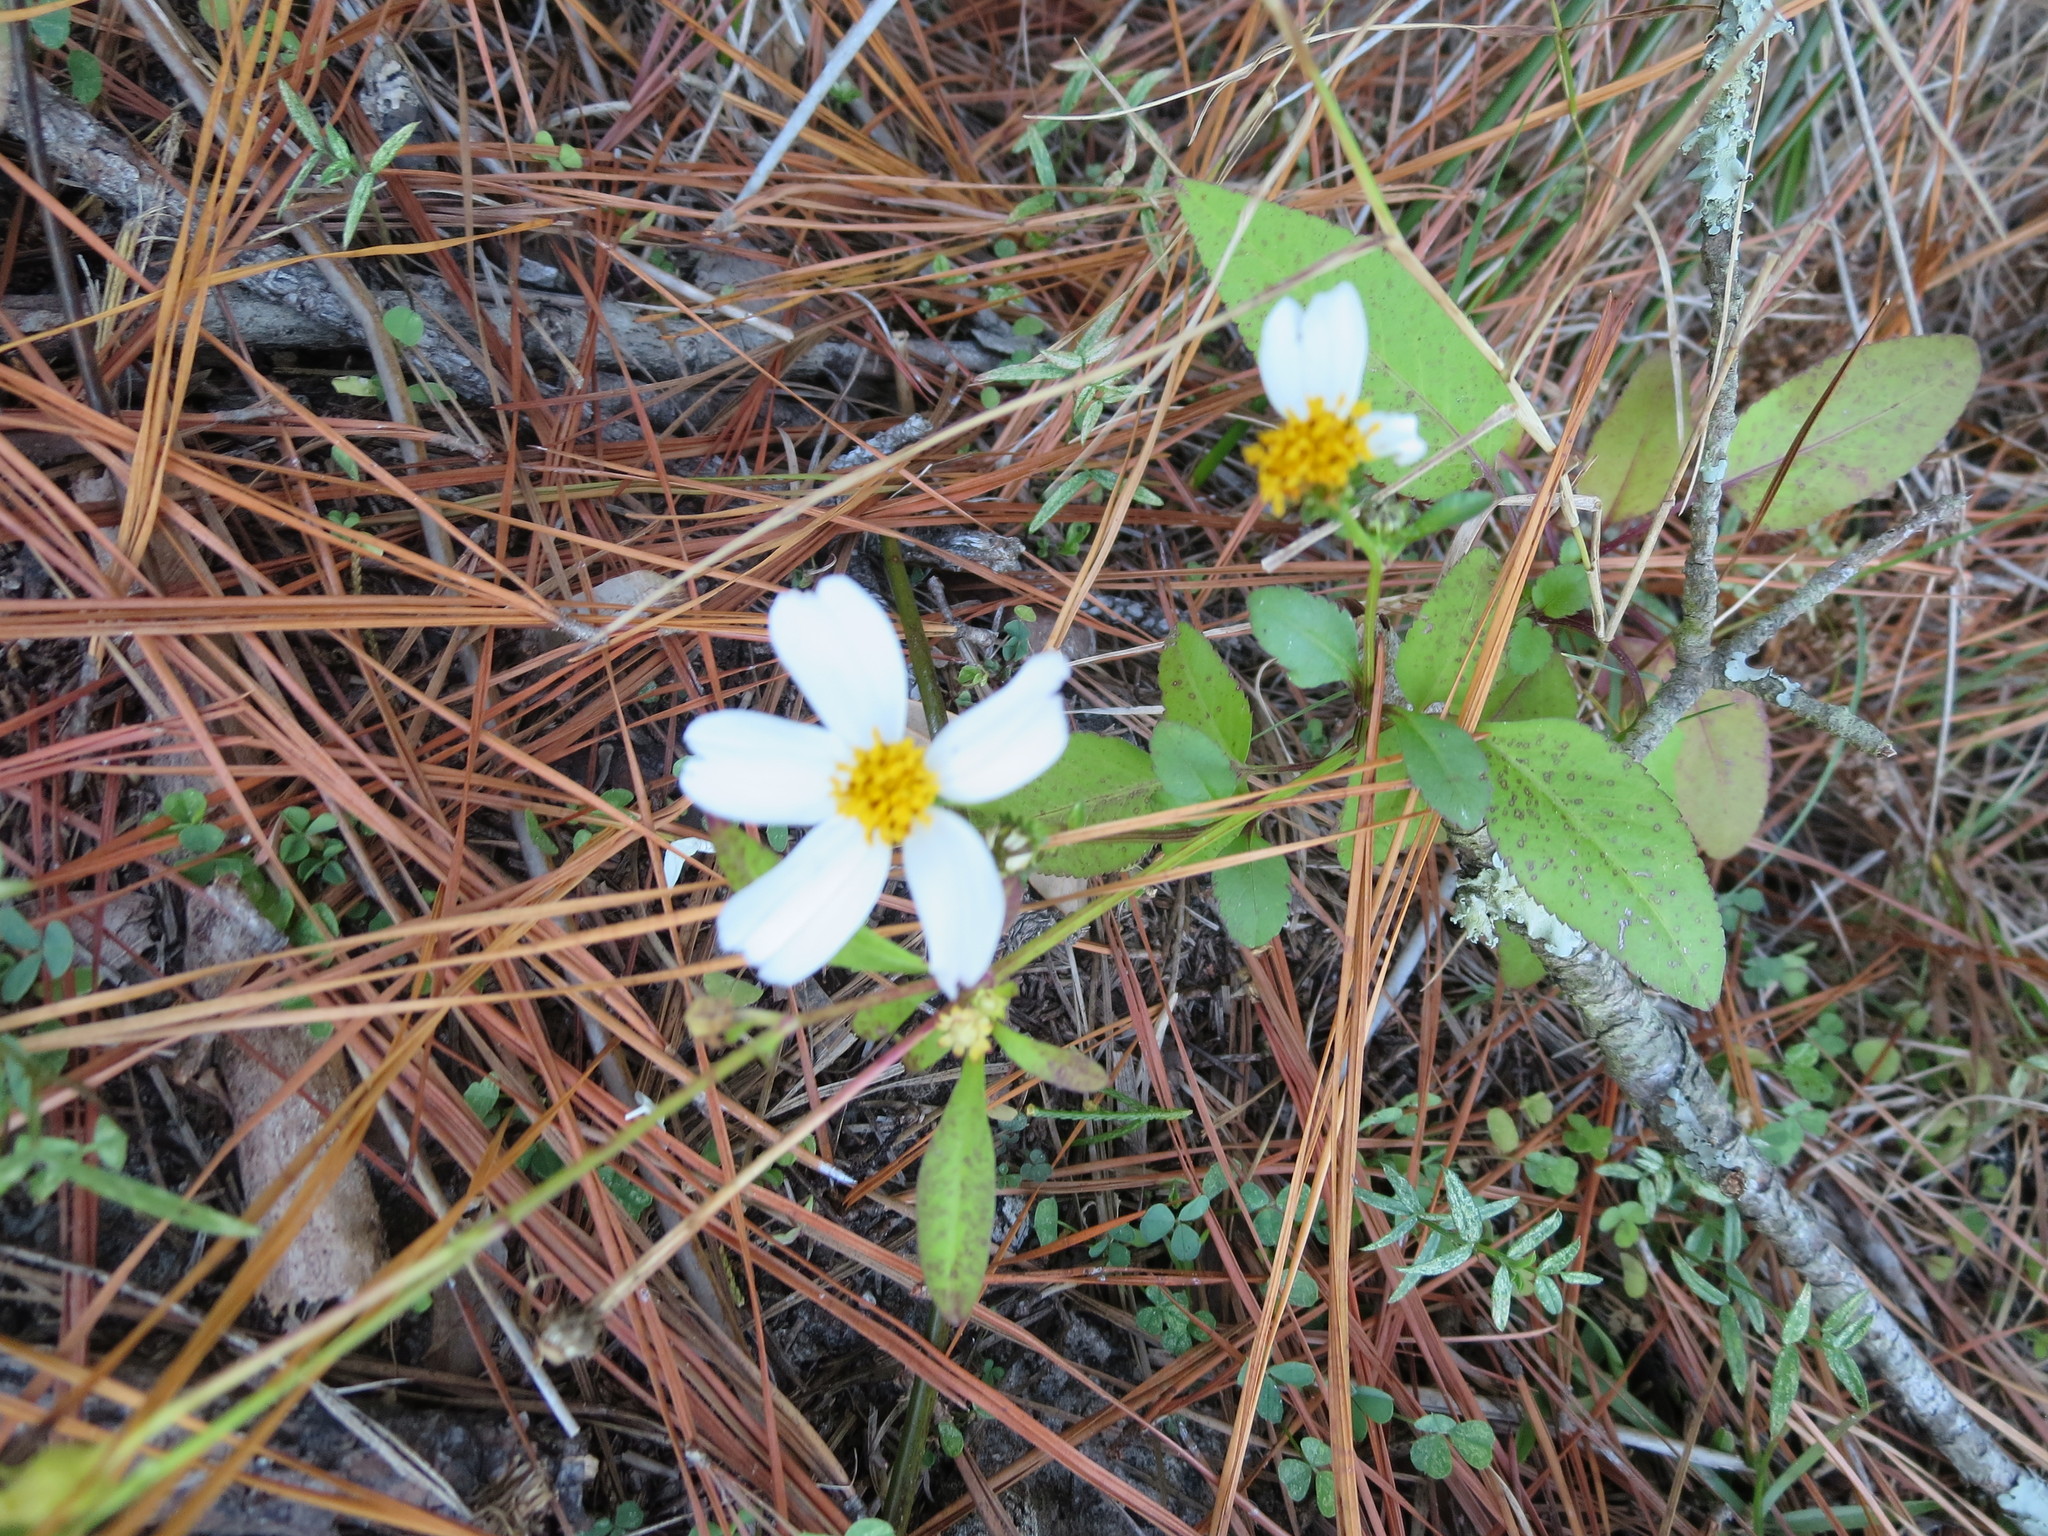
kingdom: Plantae
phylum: Tracheophyta
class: Magnoliopsida
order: Asterales
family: Asteraceae
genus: Bidens
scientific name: Bidens alba
